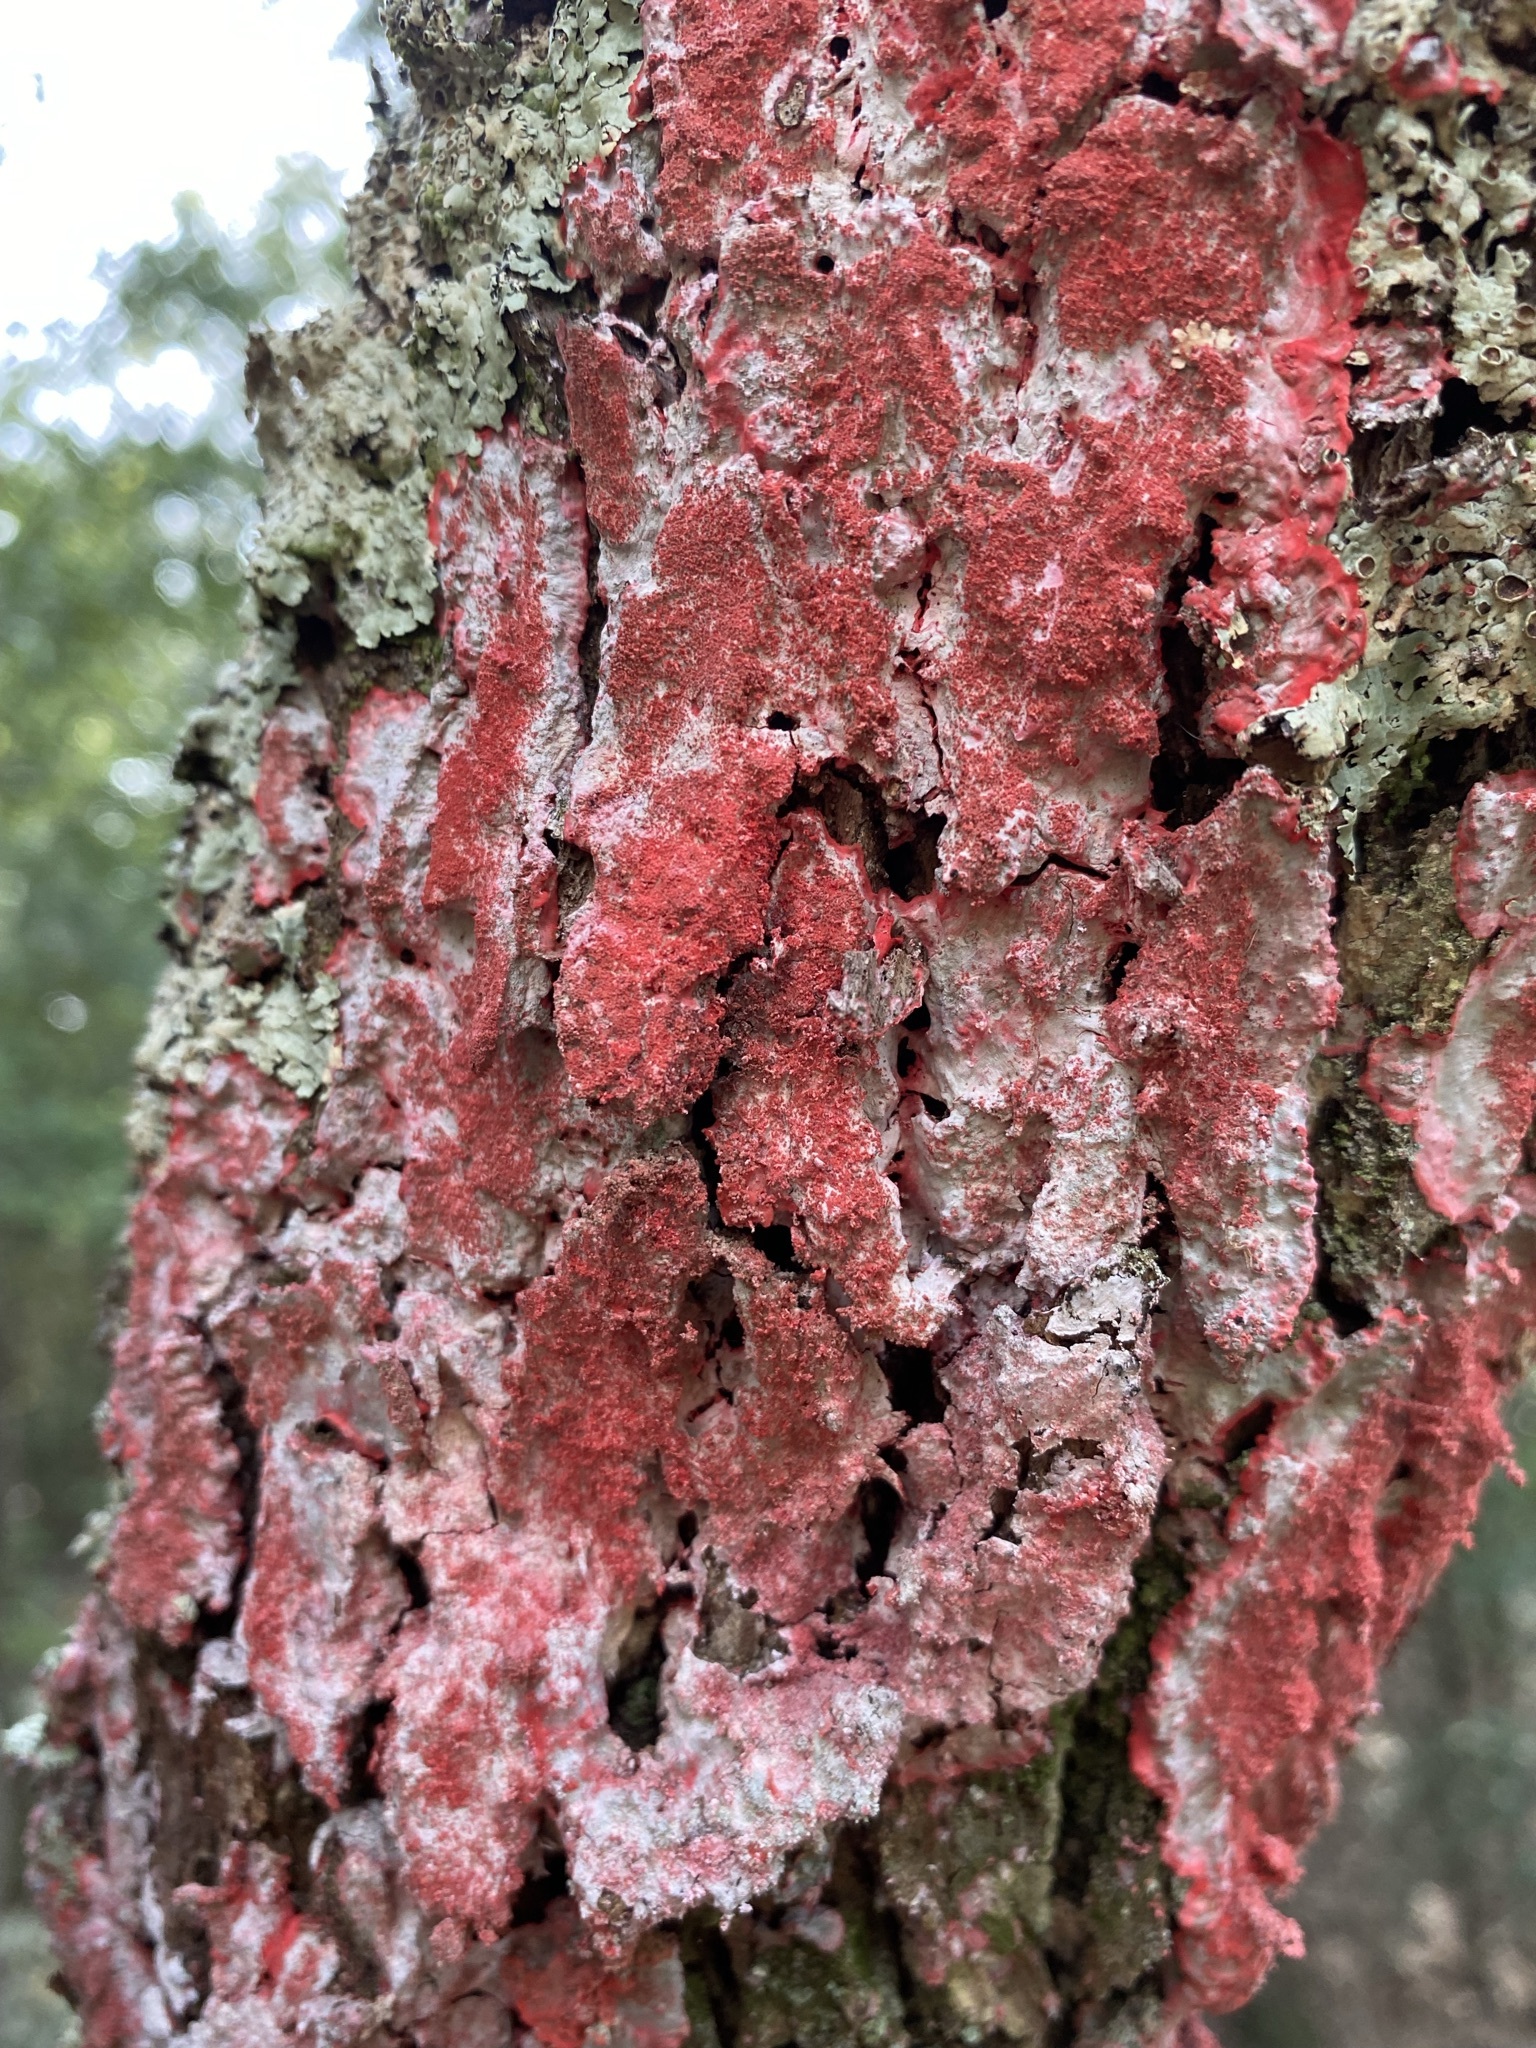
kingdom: Fungi
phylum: Ascomycota
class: Arthoniomycetes
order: Arthoniales
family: Arthoniaceae
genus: Herpothallon
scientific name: Herpothallon rubrocinctum
